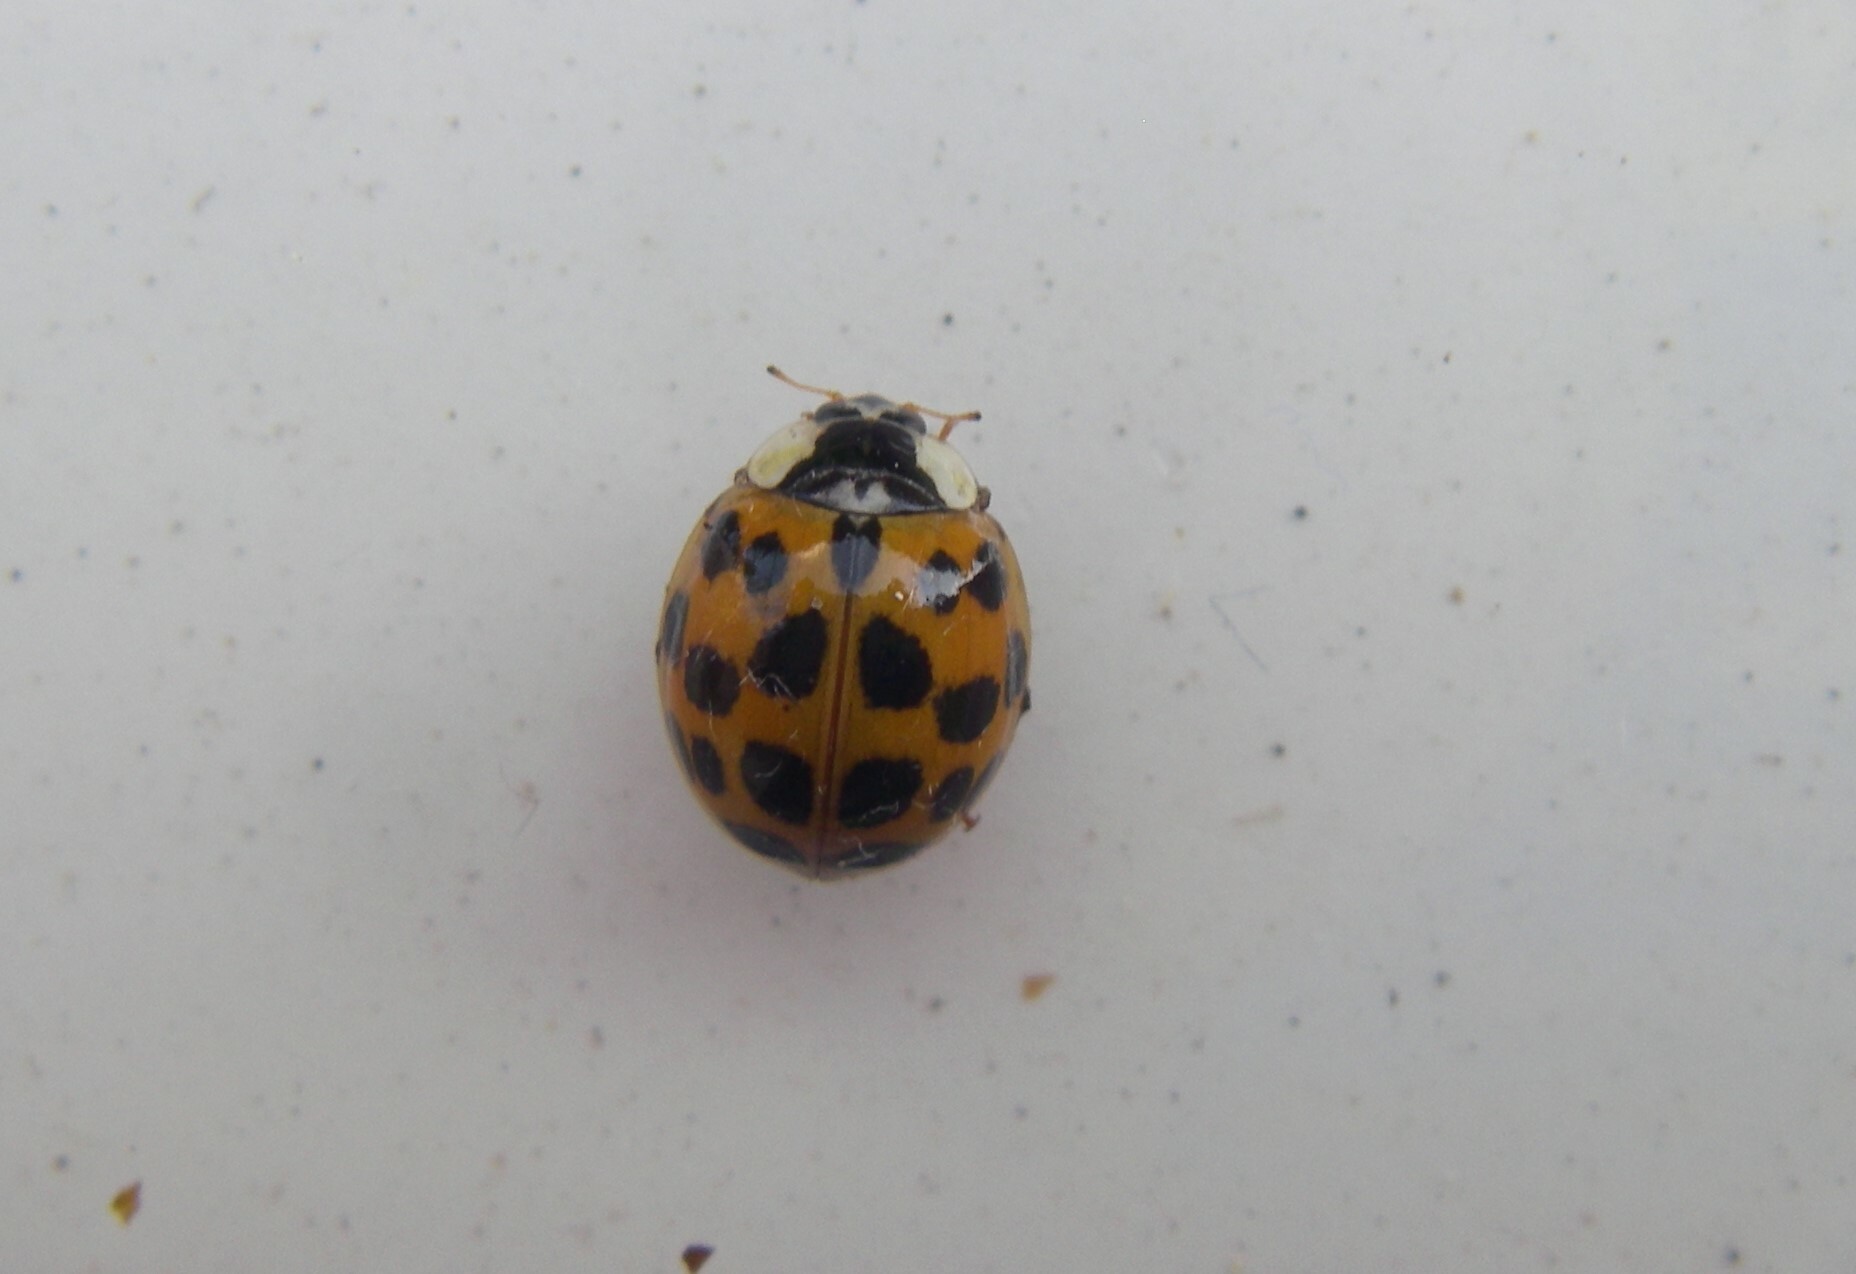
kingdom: Animalia
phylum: Arthropoda
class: Insecta
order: Coleoptera
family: Coccinellidae
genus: Harmonia
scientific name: Harmonia axyridis
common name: Harlequin ladybird
